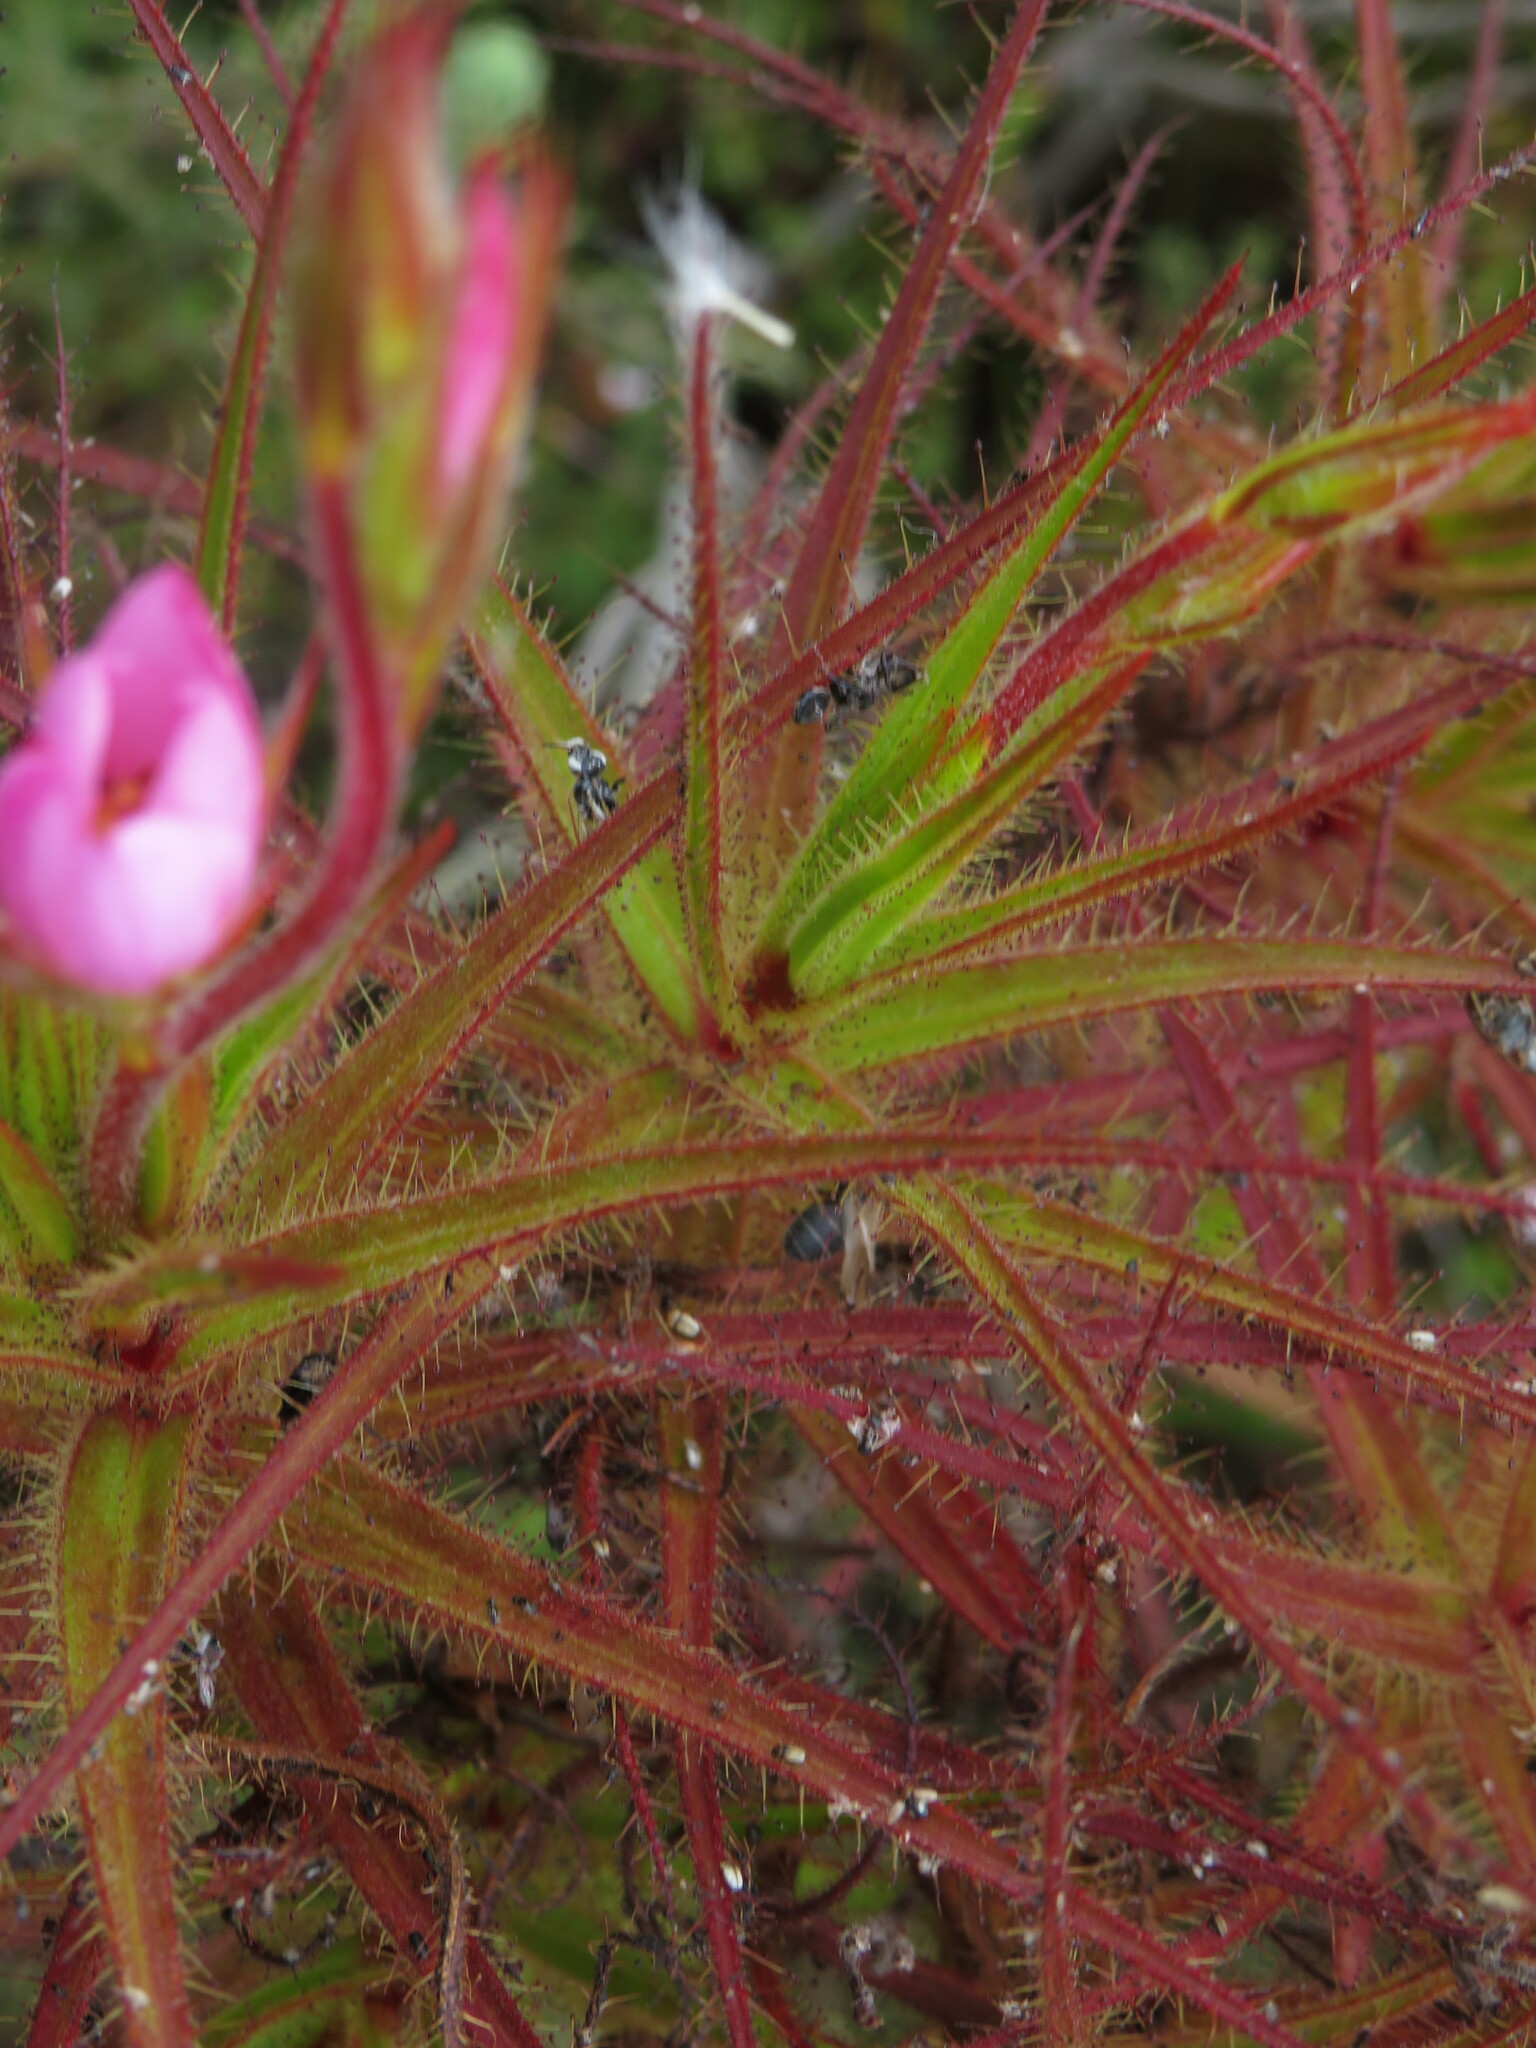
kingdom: Plantae
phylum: Tracheophyta
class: Magnoliopsida
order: Ericales
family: Roridulaceae
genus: Roridula
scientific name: Roridula gorgonias
